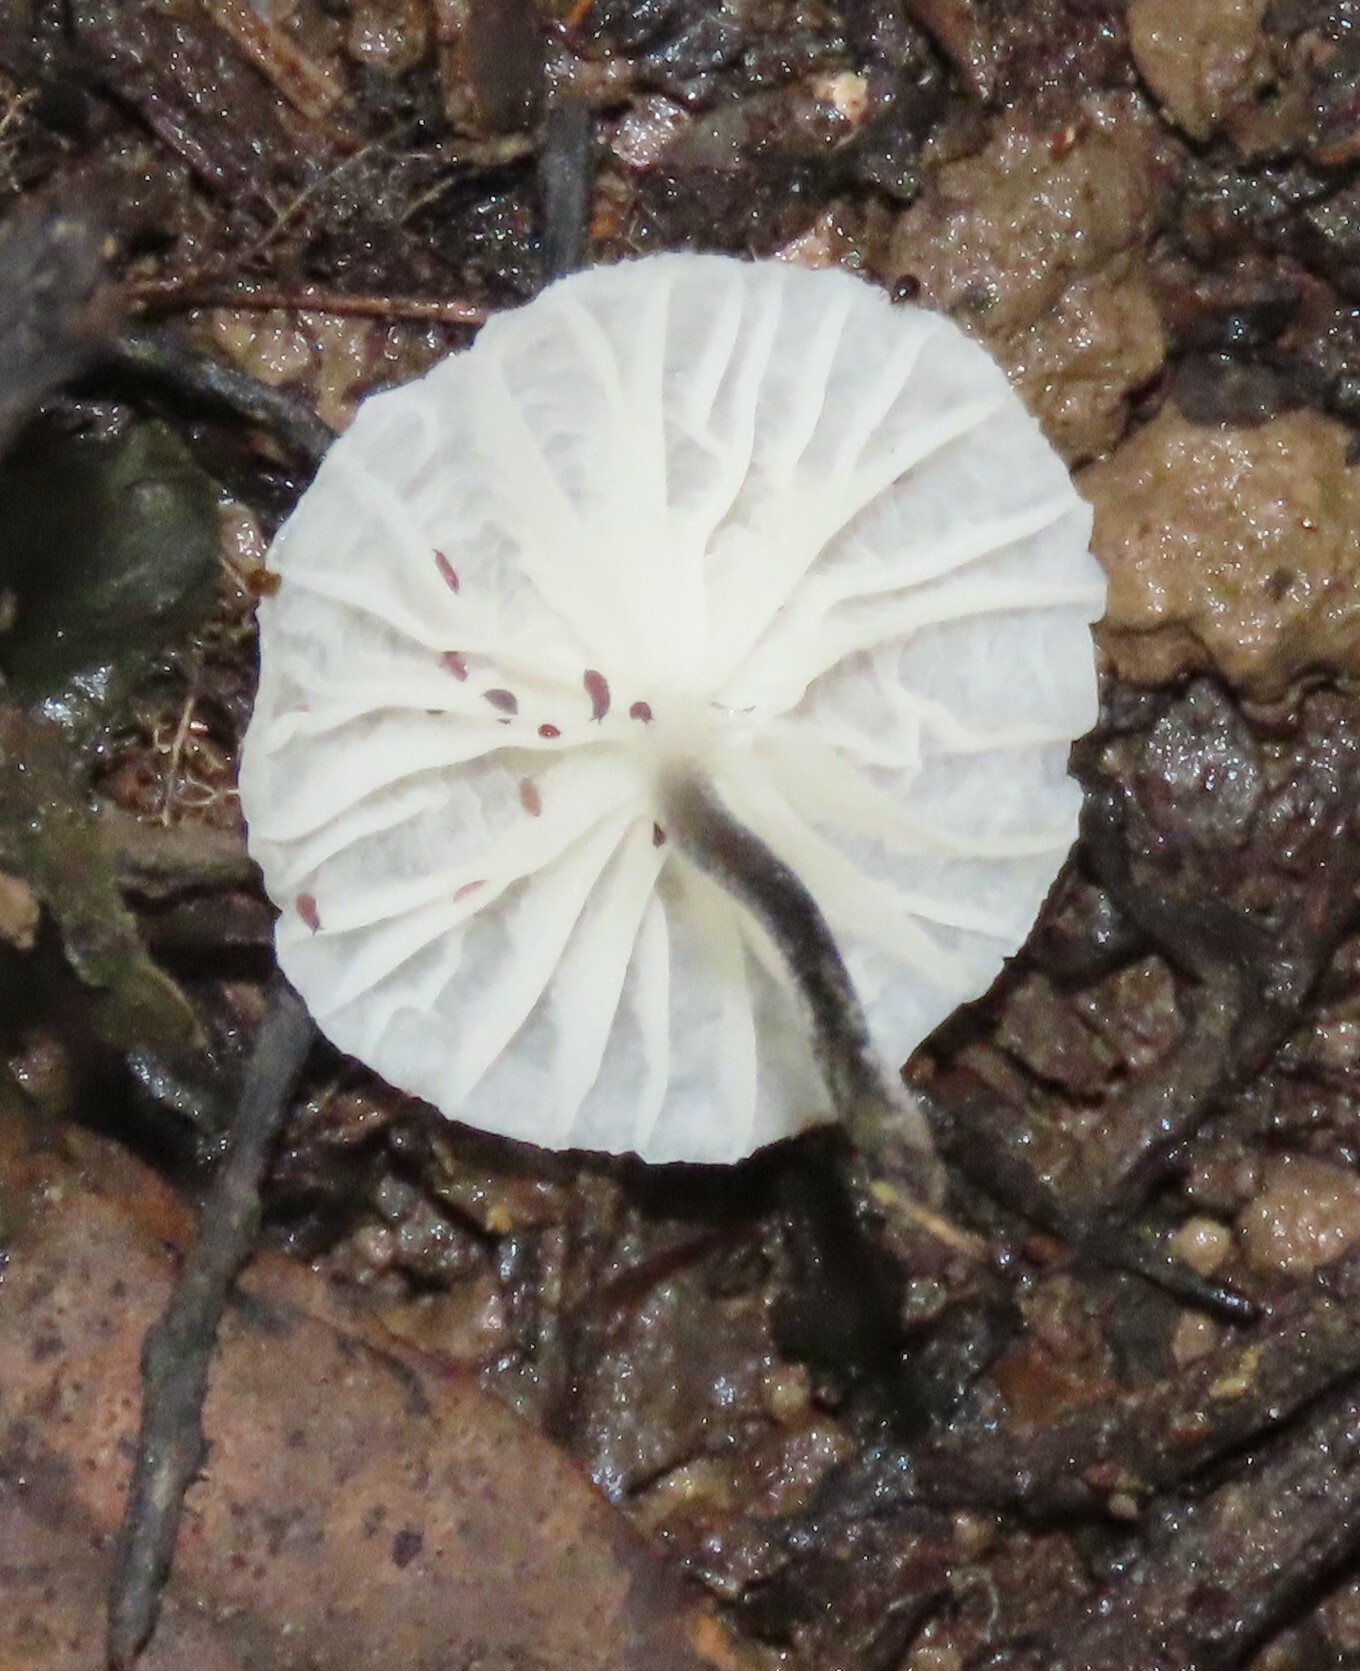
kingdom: Fungi
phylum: Basidiomycota
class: Agaricomycetes
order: Agaricales
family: Porotheleaceae
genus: Porotheleum
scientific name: Porotheleum albodescendens
